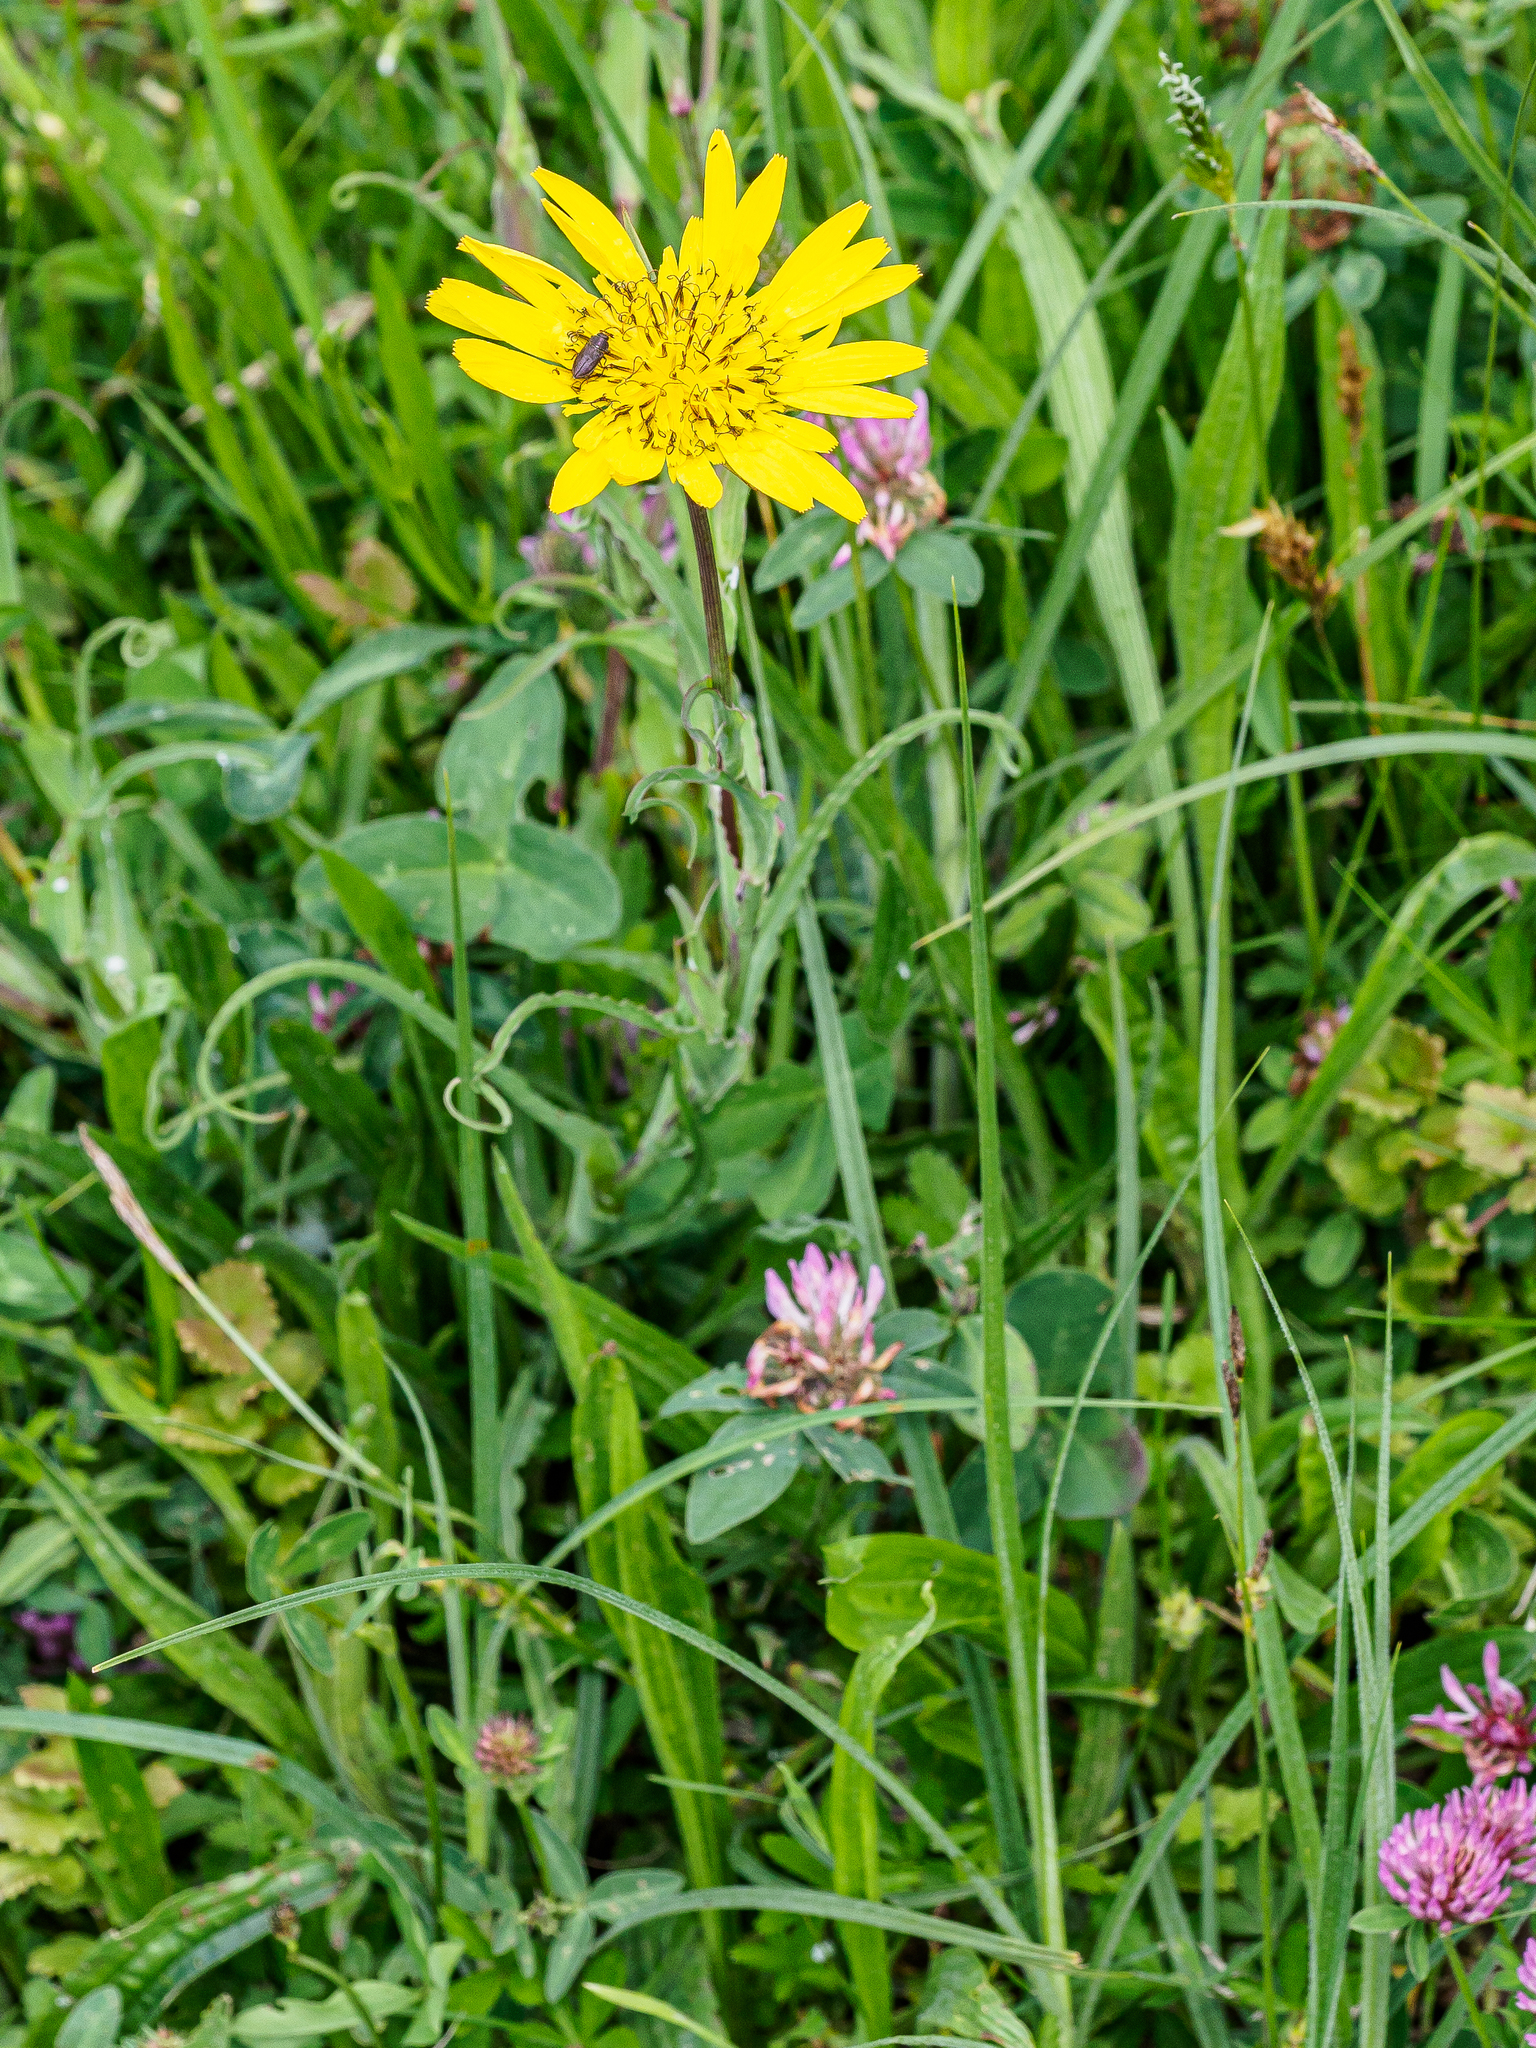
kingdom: Plantae
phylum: Tracheophyta
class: Magnoliopsida
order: Asterales
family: Asteraceae
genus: Tragopogon
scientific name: Tragopogon orientalis
